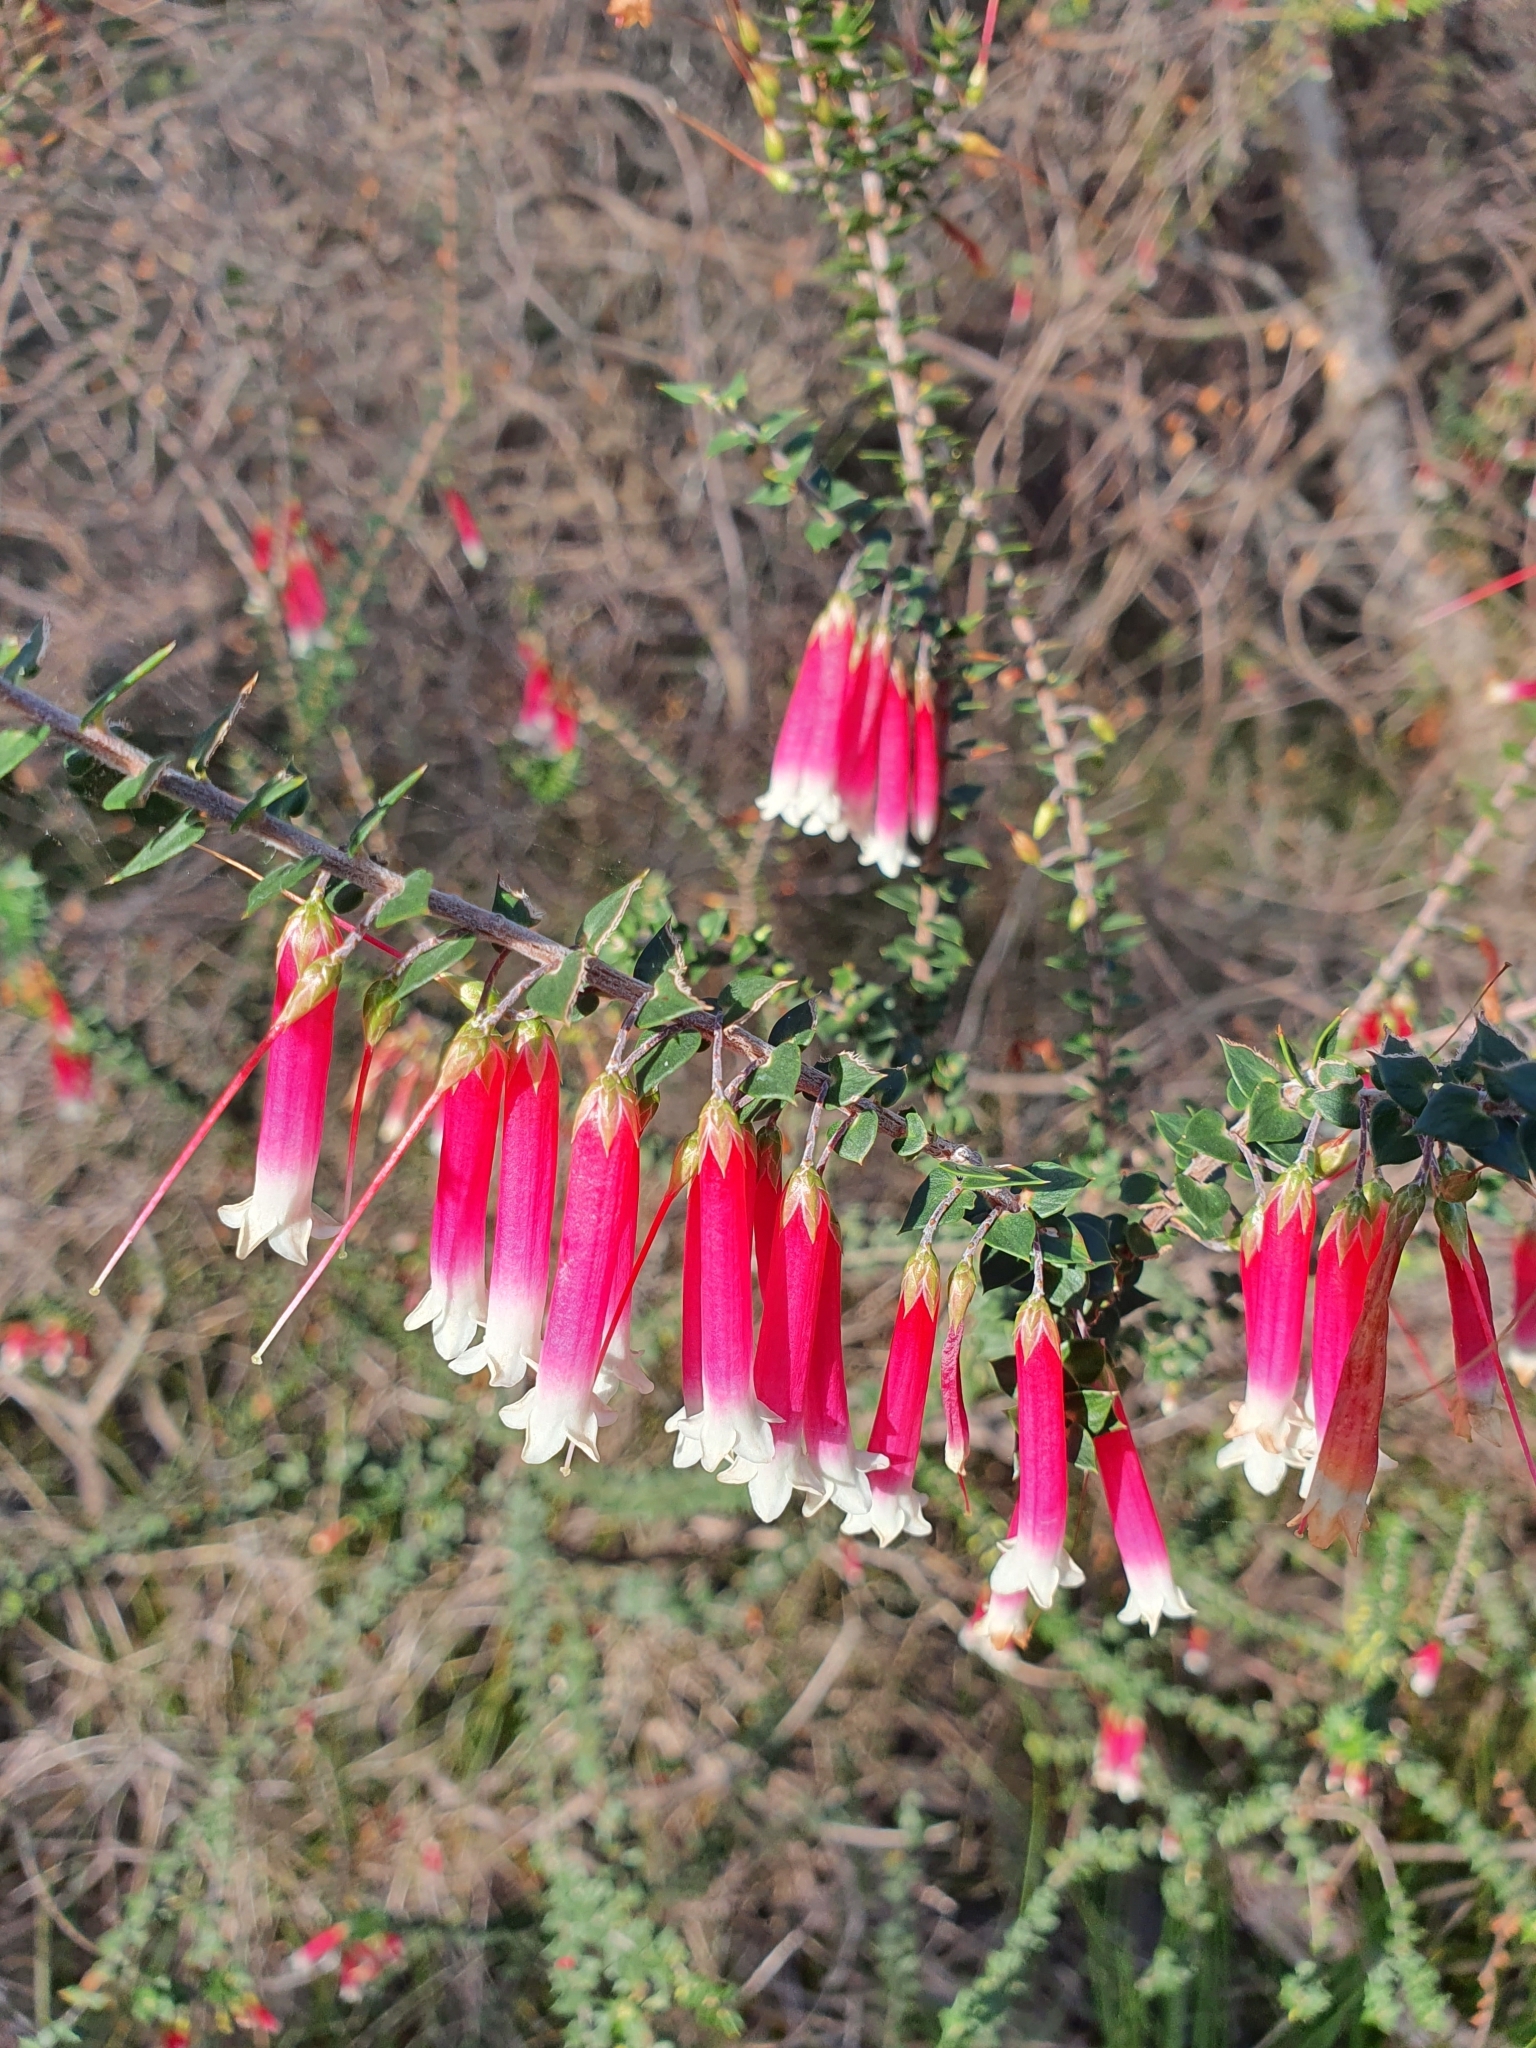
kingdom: Plantae
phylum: Tracheophyta
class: Magnoliopsida
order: Ericales
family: Ericaceae
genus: Epacris
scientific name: Epacris longiflora
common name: Fuchsia-heath
